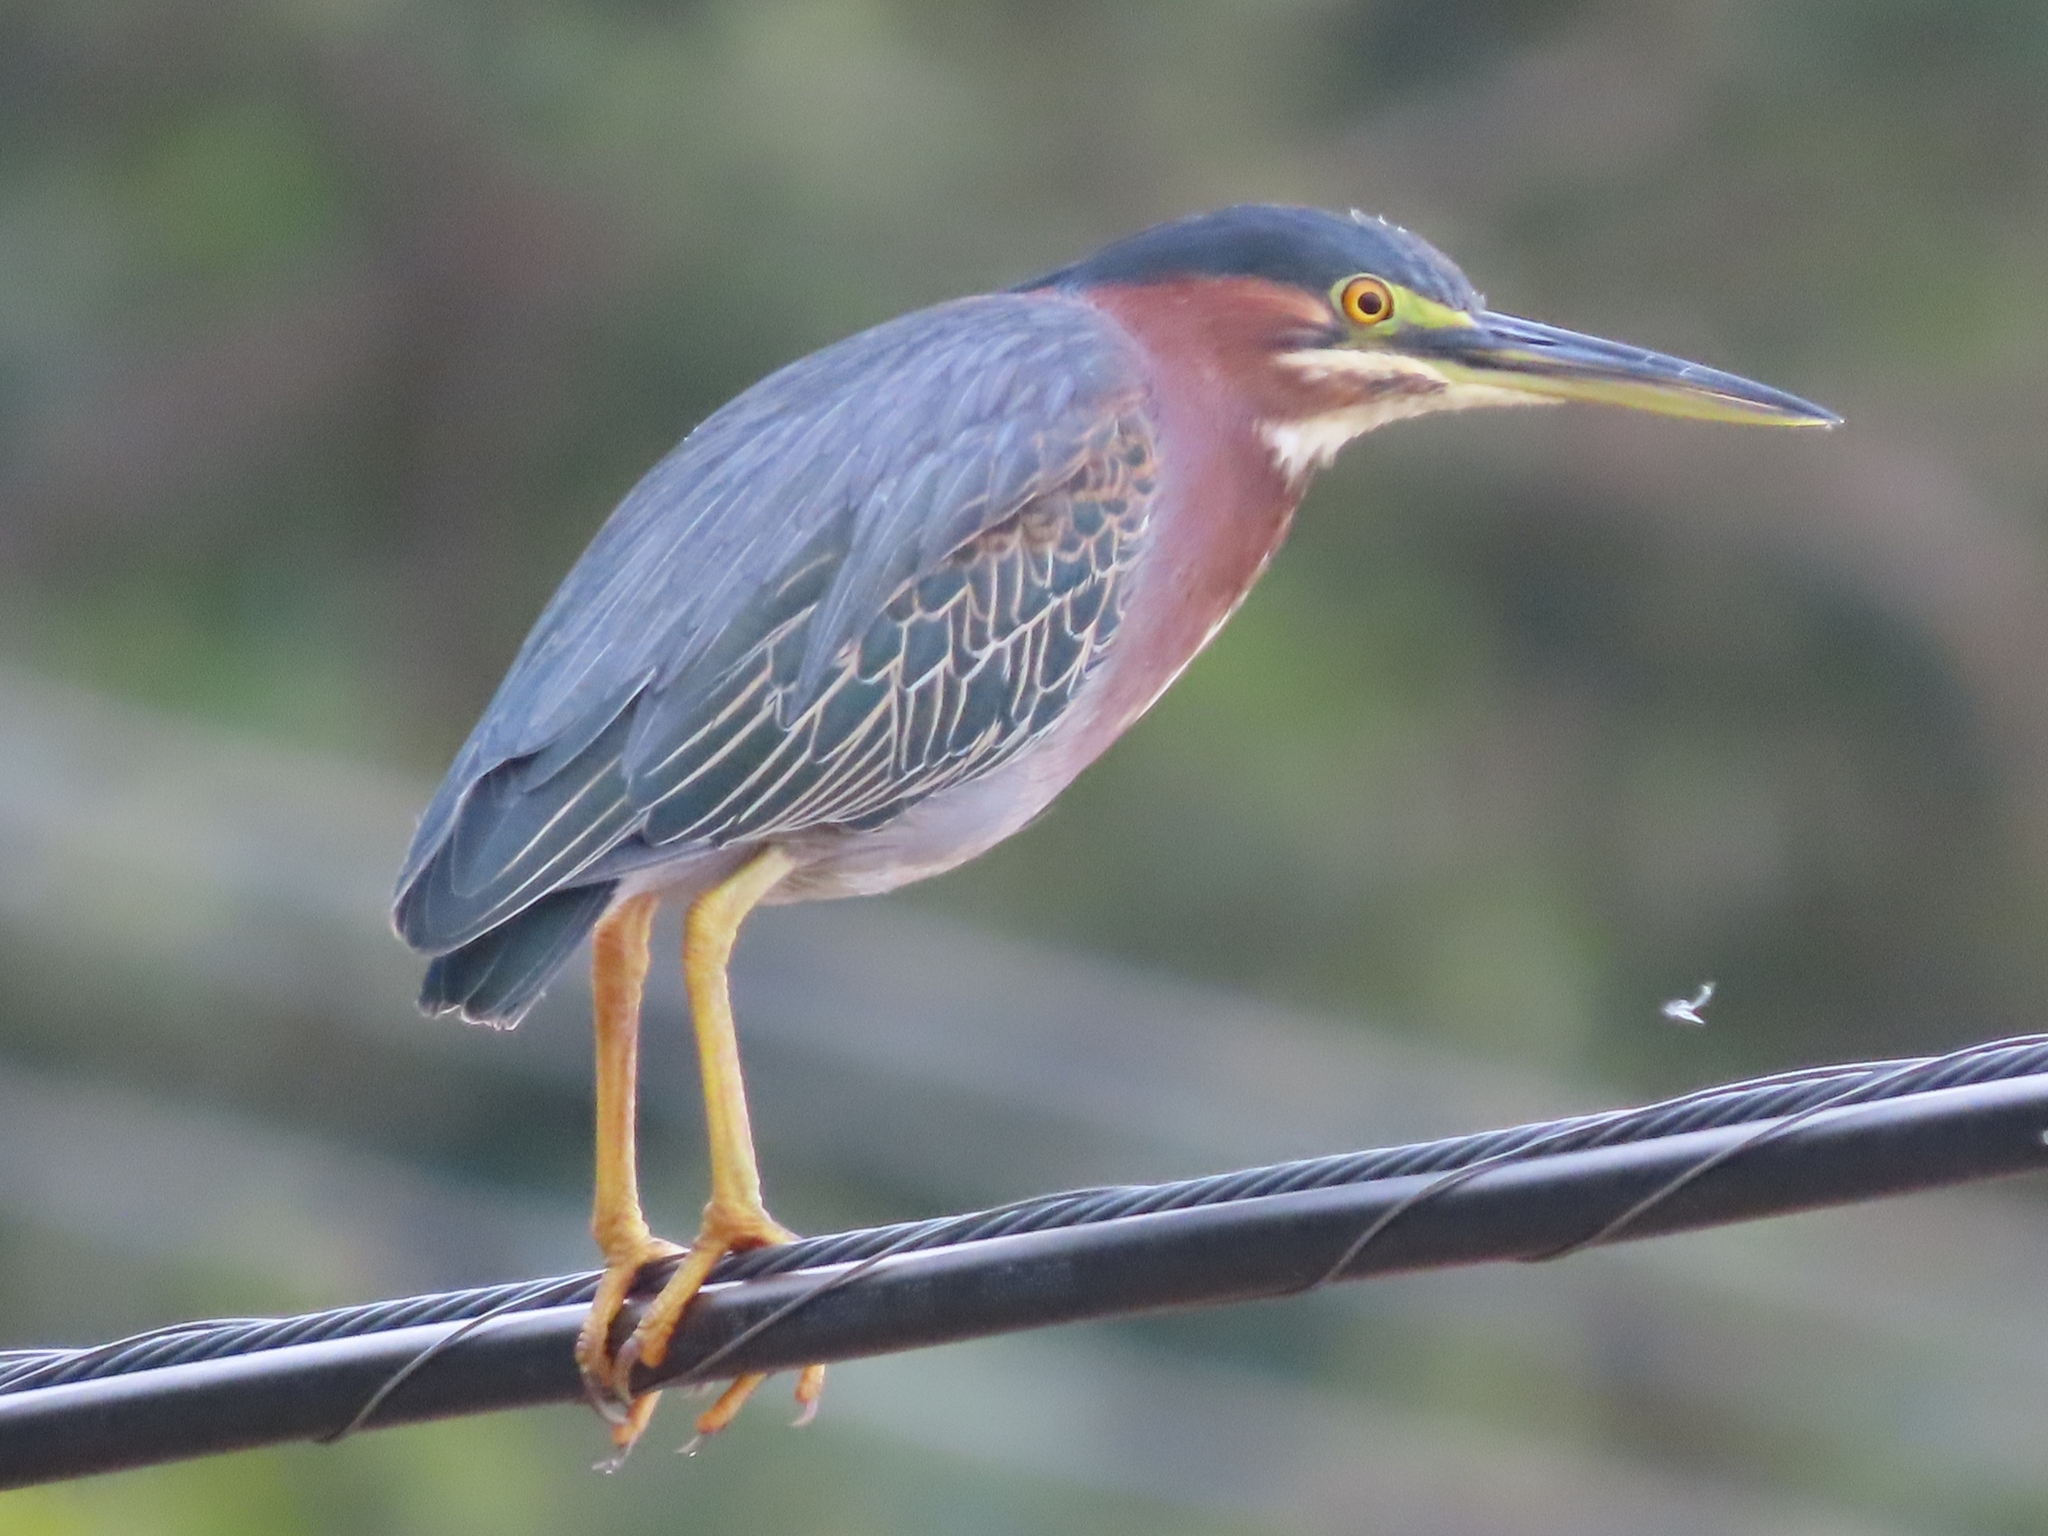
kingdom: Animalia
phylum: Chordata
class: Aves
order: Pelecaniformes
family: Ardeidae
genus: Butorides
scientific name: Butorides virescens
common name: Green heron
